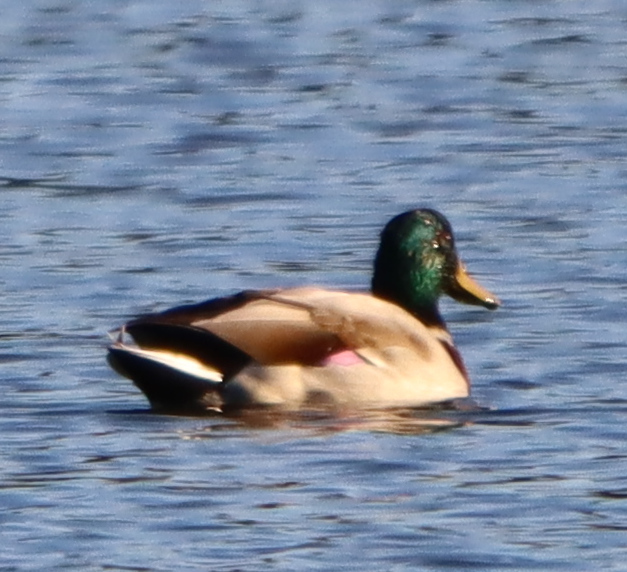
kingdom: Animalia
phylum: Chordata
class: Aves
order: Anseriformes
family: Anatidae
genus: Anas
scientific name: Anas platyrhynchos
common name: Mallard
